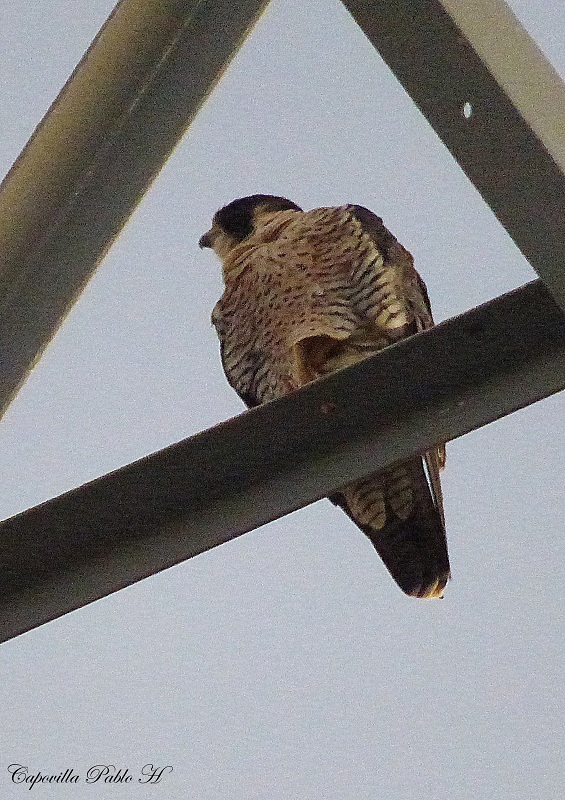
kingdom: Animalia
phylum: Chordata
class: Aves
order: Falconiformes
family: Falconidae
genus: Falco
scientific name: Falco peregrinus
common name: Peregrine falcon
